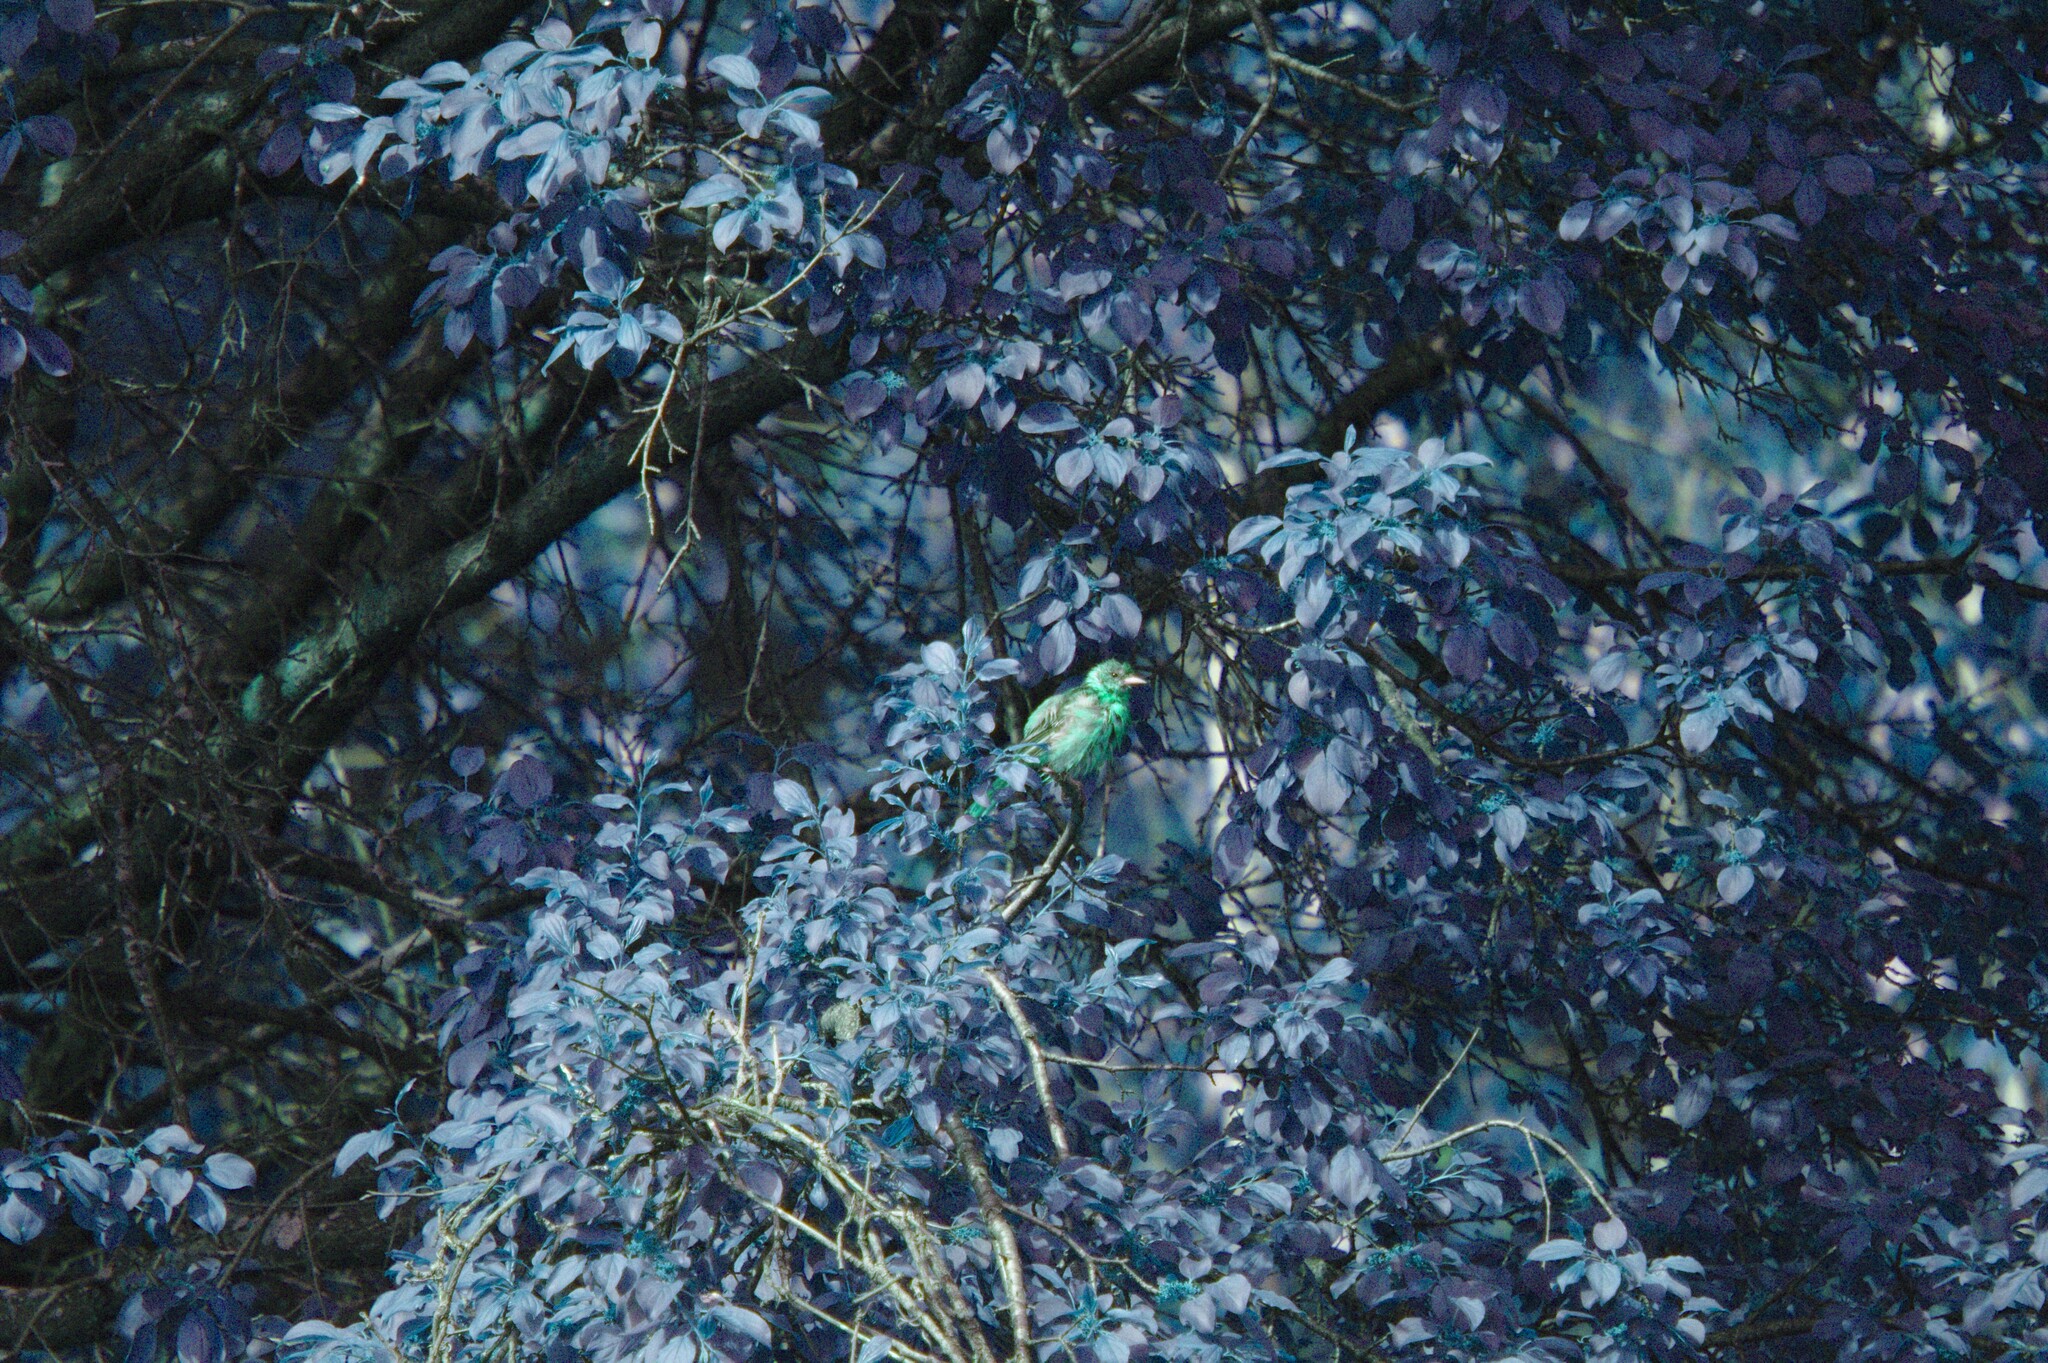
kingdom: Plantae
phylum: Tracheophyta
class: Magnoliopsida
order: Rosales
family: Rhamnaceae
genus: Rhamnus
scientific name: Rhamnus cathartica
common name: Common buckthorn
